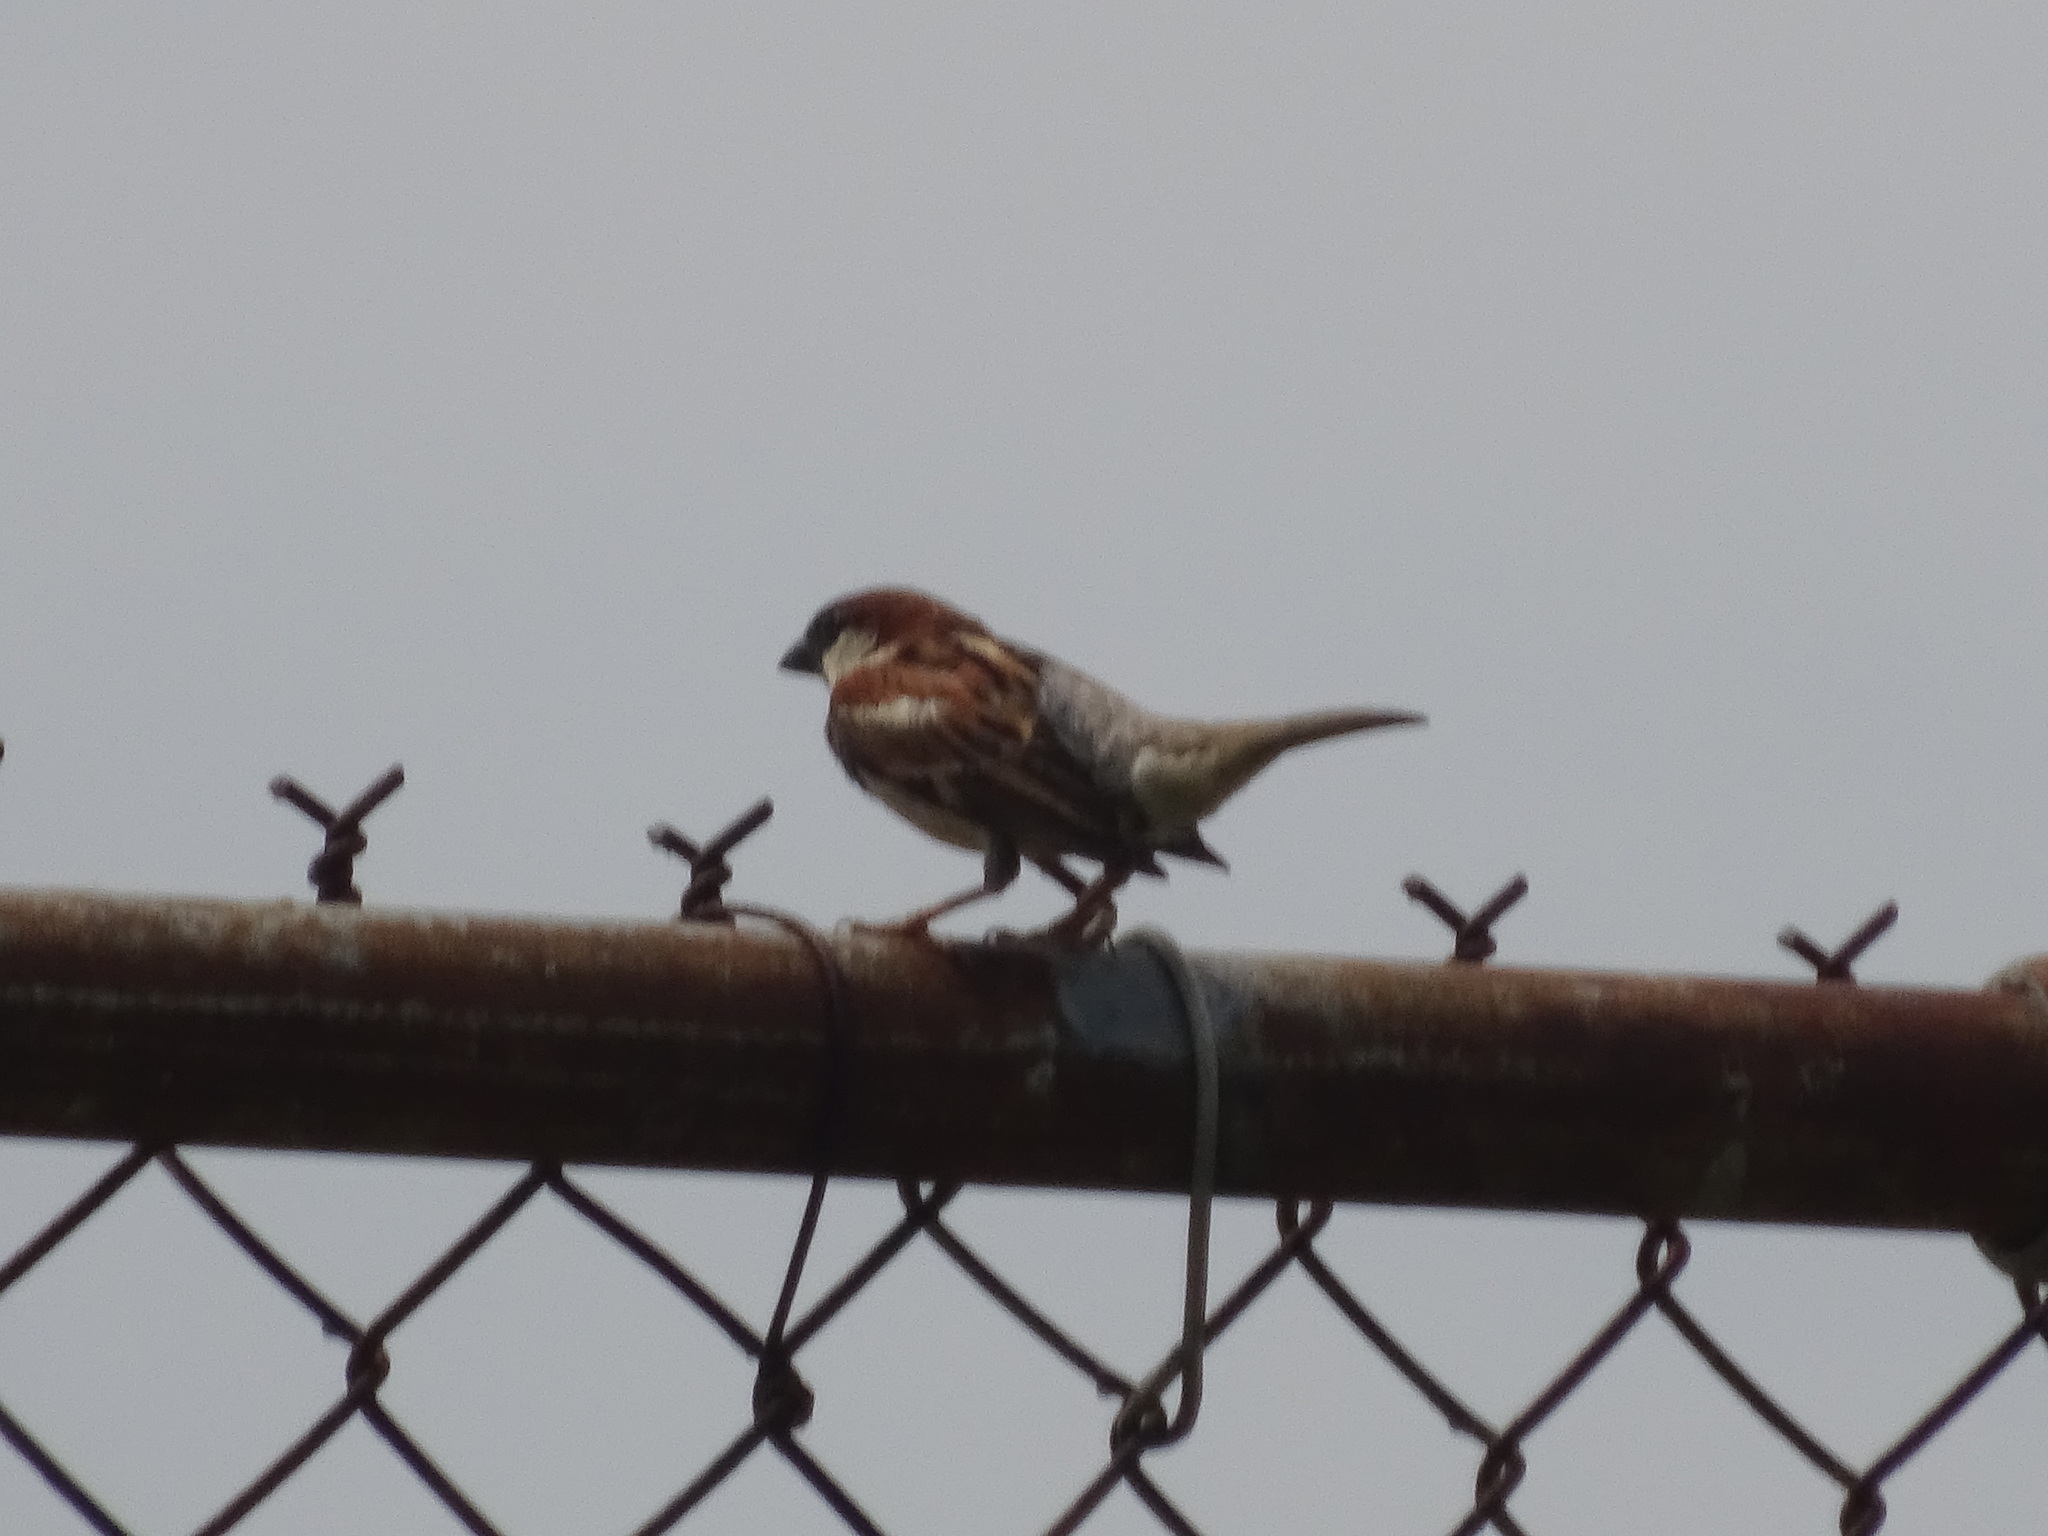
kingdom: Animalia
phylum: Chordata
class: Aves
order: Passeriformes
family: Passeridae
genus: Passer
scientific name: Passer domesticus
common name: House sparrow
